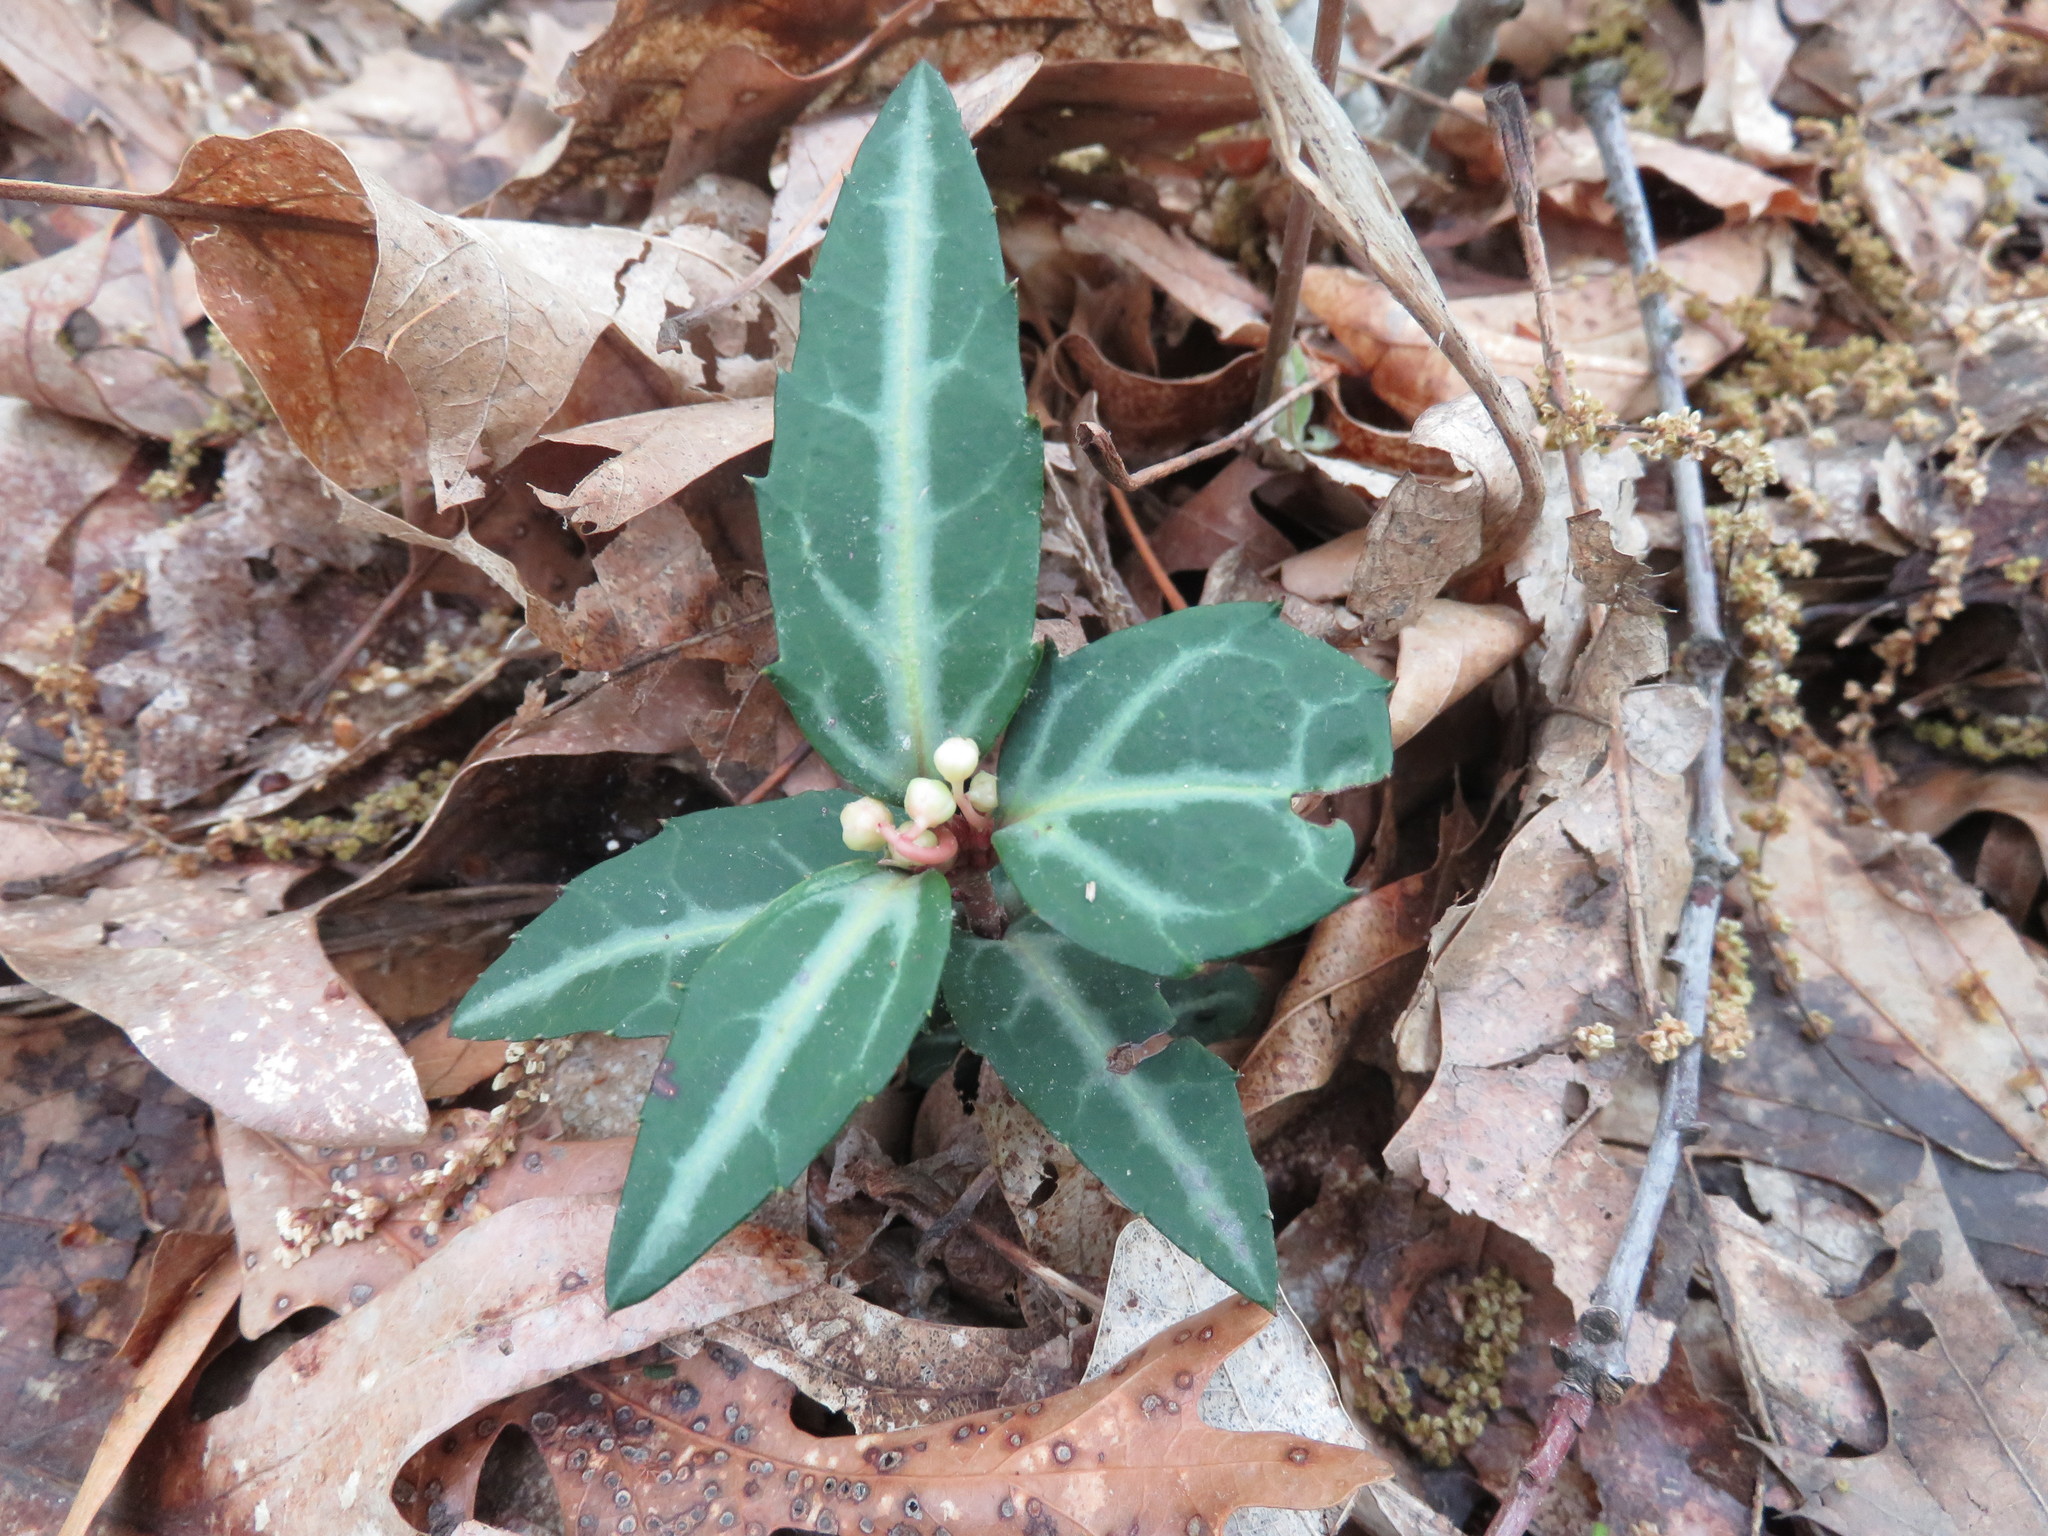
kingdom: Plantae
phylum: Tracheophyta
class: Magnoliopsida
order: Ericales
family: Ericaceae
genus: Chimaphila
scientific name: Chimaphila maculata
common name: Spotted pipsissewa
